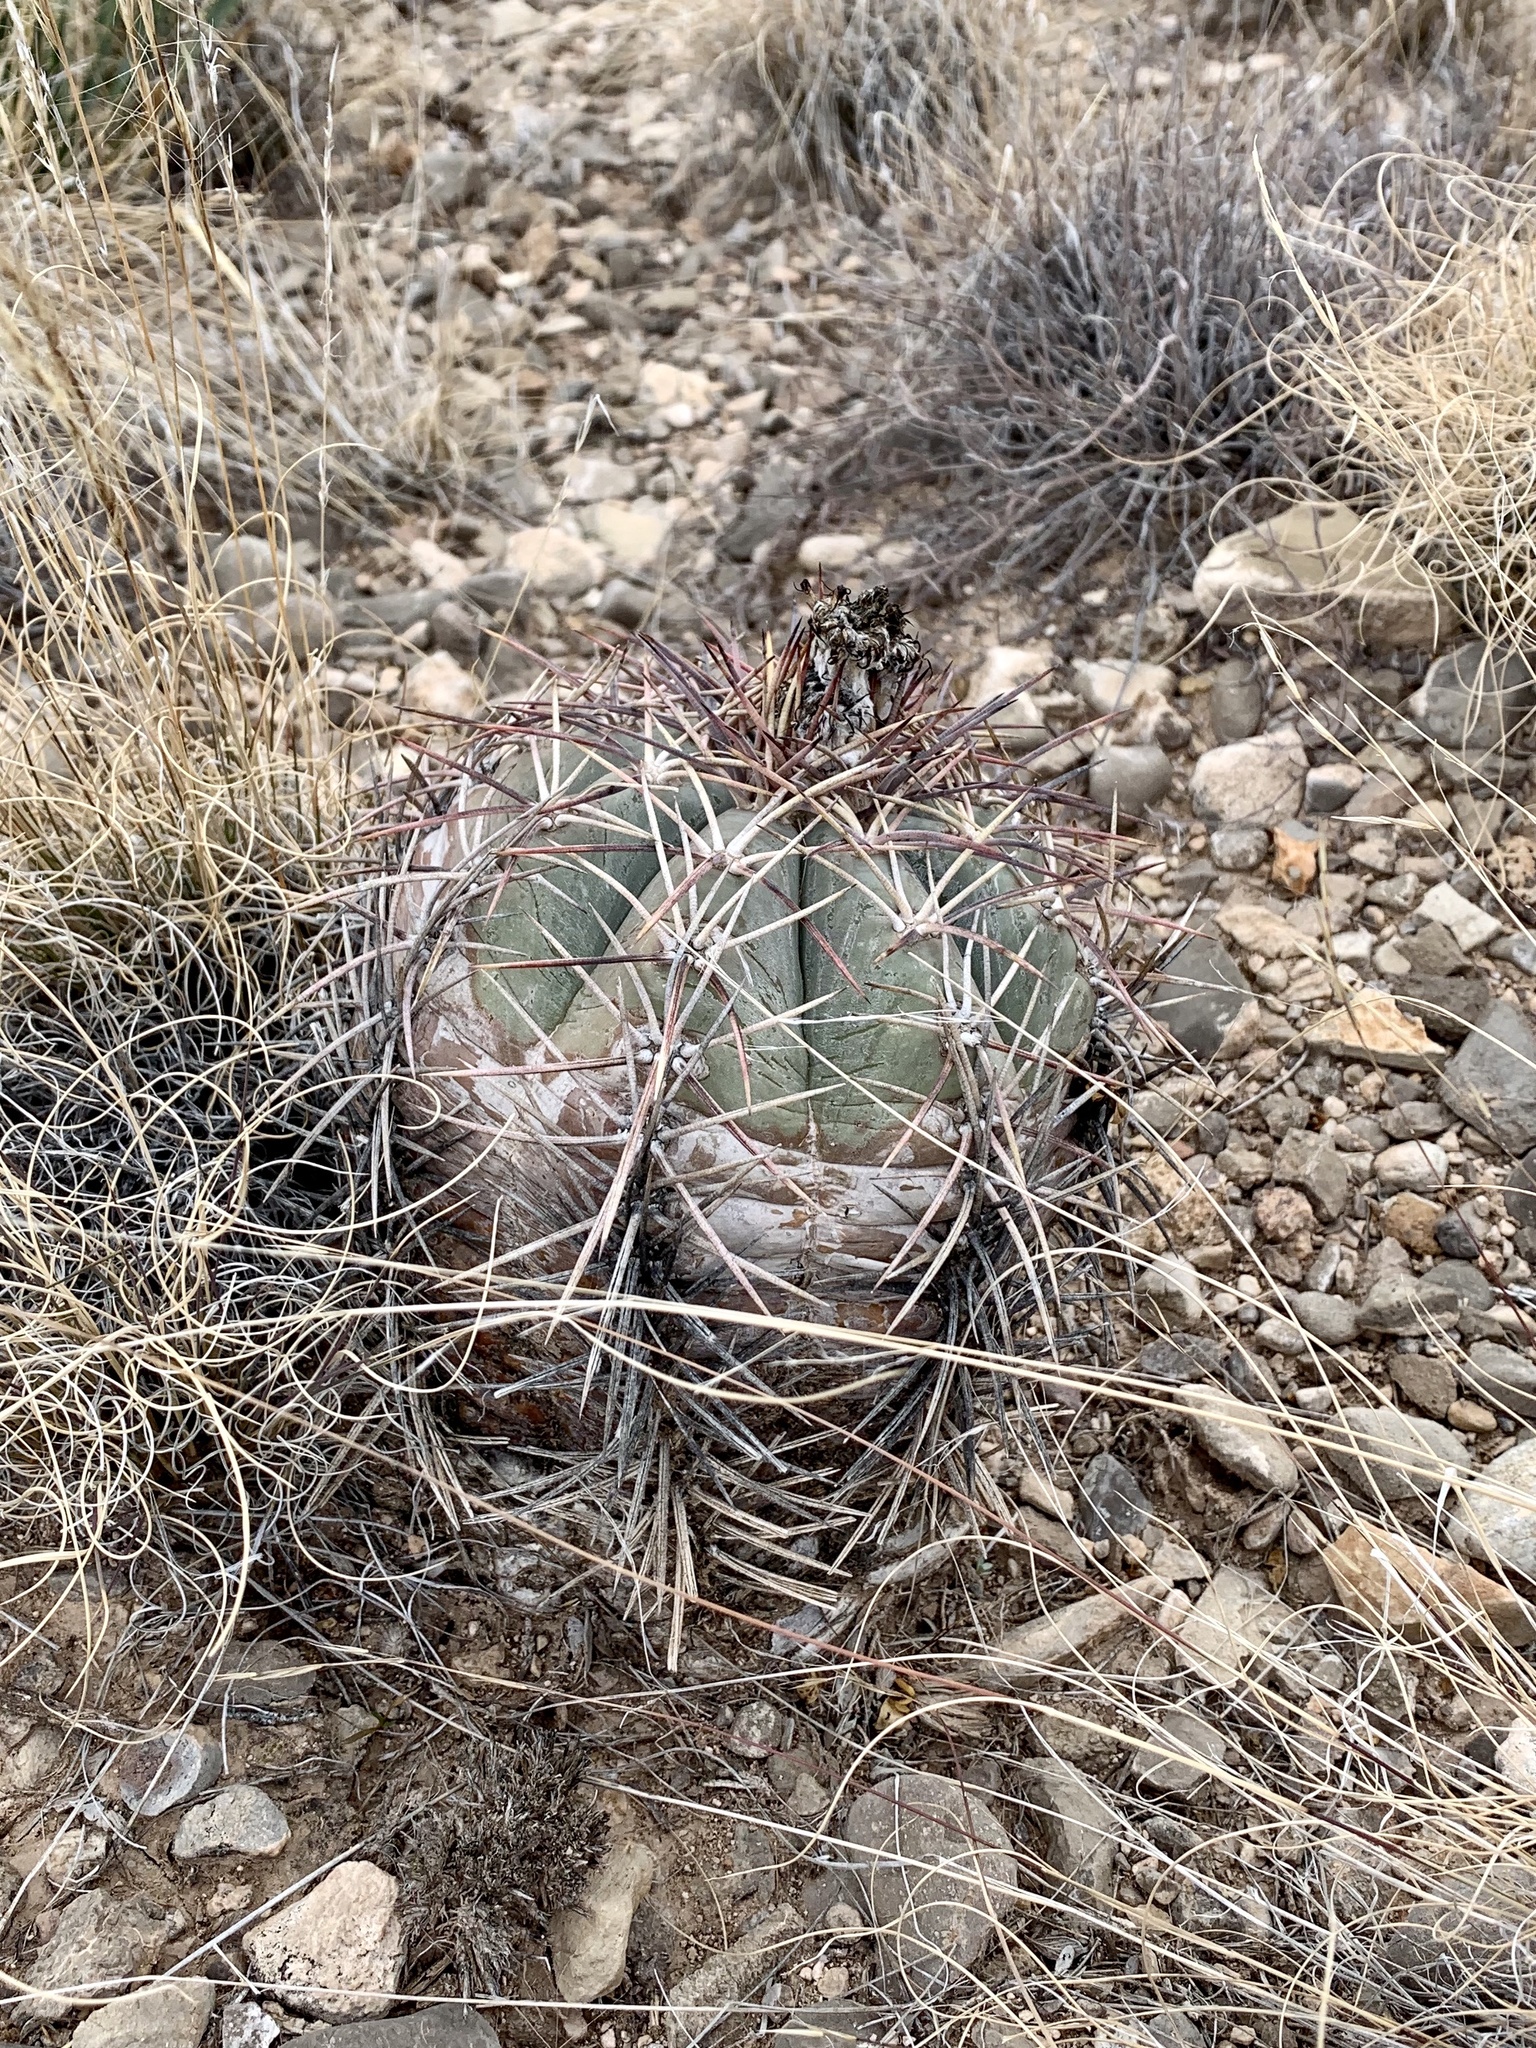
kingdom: Plantae
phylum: Tracheophyta
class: Magnoliopsida
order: Caryophyllales
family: Cactaceae
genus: Echinocactus
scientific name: Echinocactus horizonthalonius
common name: Devilshead
